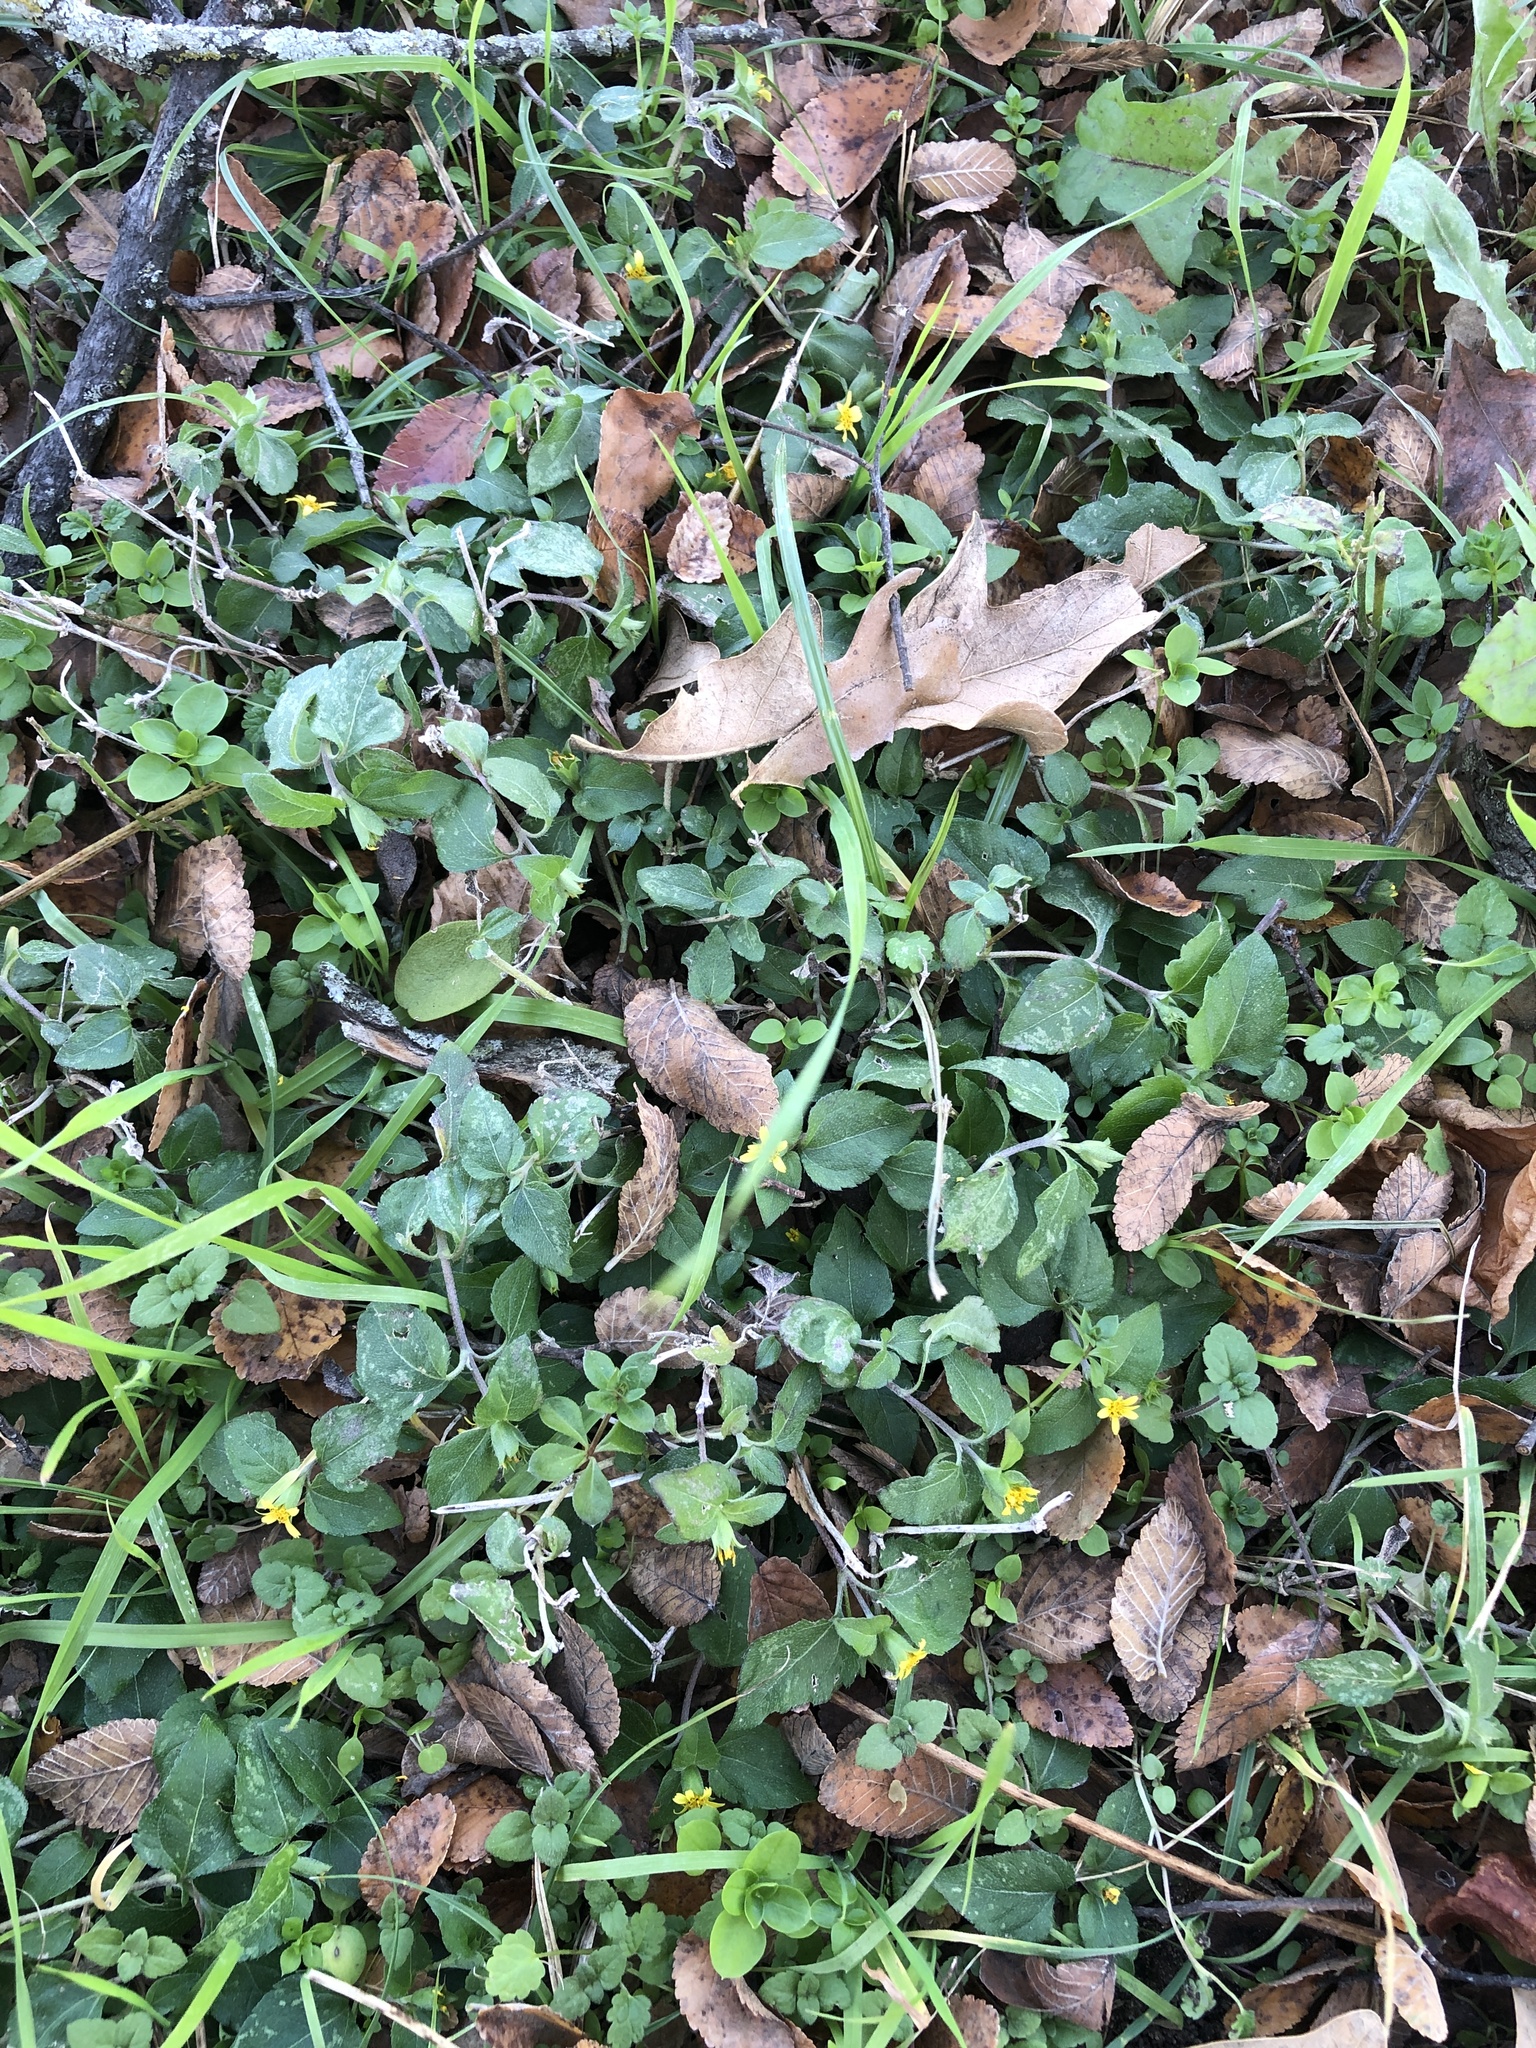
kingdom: Plantae
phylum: Tracheophyta
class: Magnoliopsida
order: Asterales
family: Asteraceae
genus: Calyptocarpus
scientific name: Calyptocarpus vialis
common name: Straggler daisy
